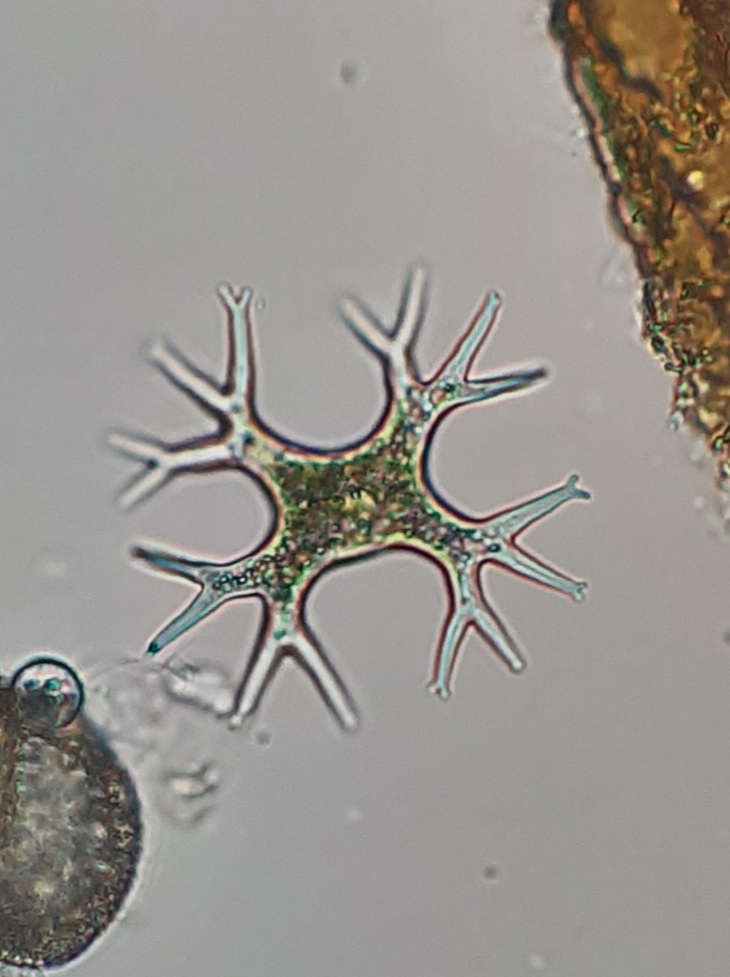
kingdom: Chromista
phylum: Ochrophyta
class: Xanthophyceae
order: Mischococcales
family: Pleurochloridaceae
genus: Isthmochloron
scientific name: Isthmochloron lobulatum
